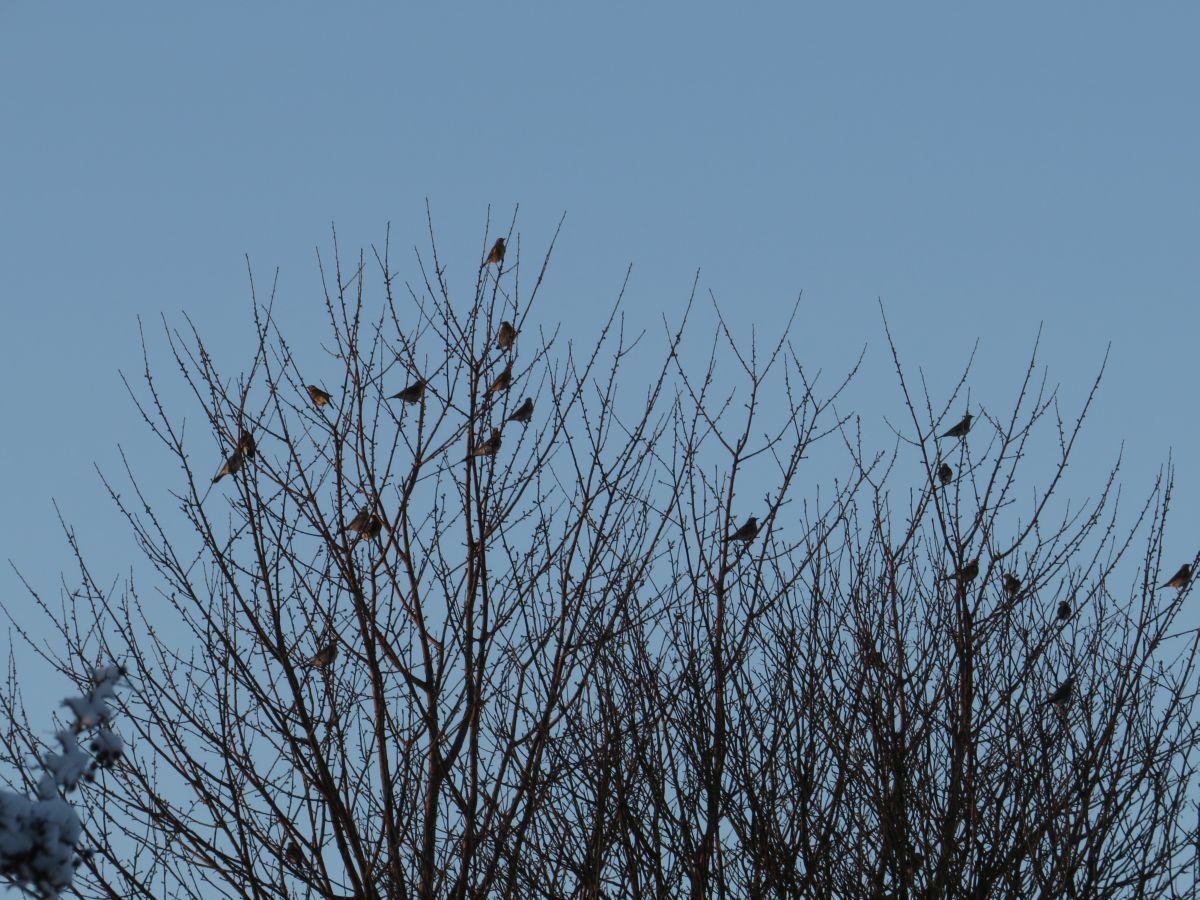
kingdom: Animalia
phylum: Chordata
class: Aves
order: Passeriformes
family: Turdidae
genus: Turdus
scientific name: Turdus pilaris
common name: Fieldfare
